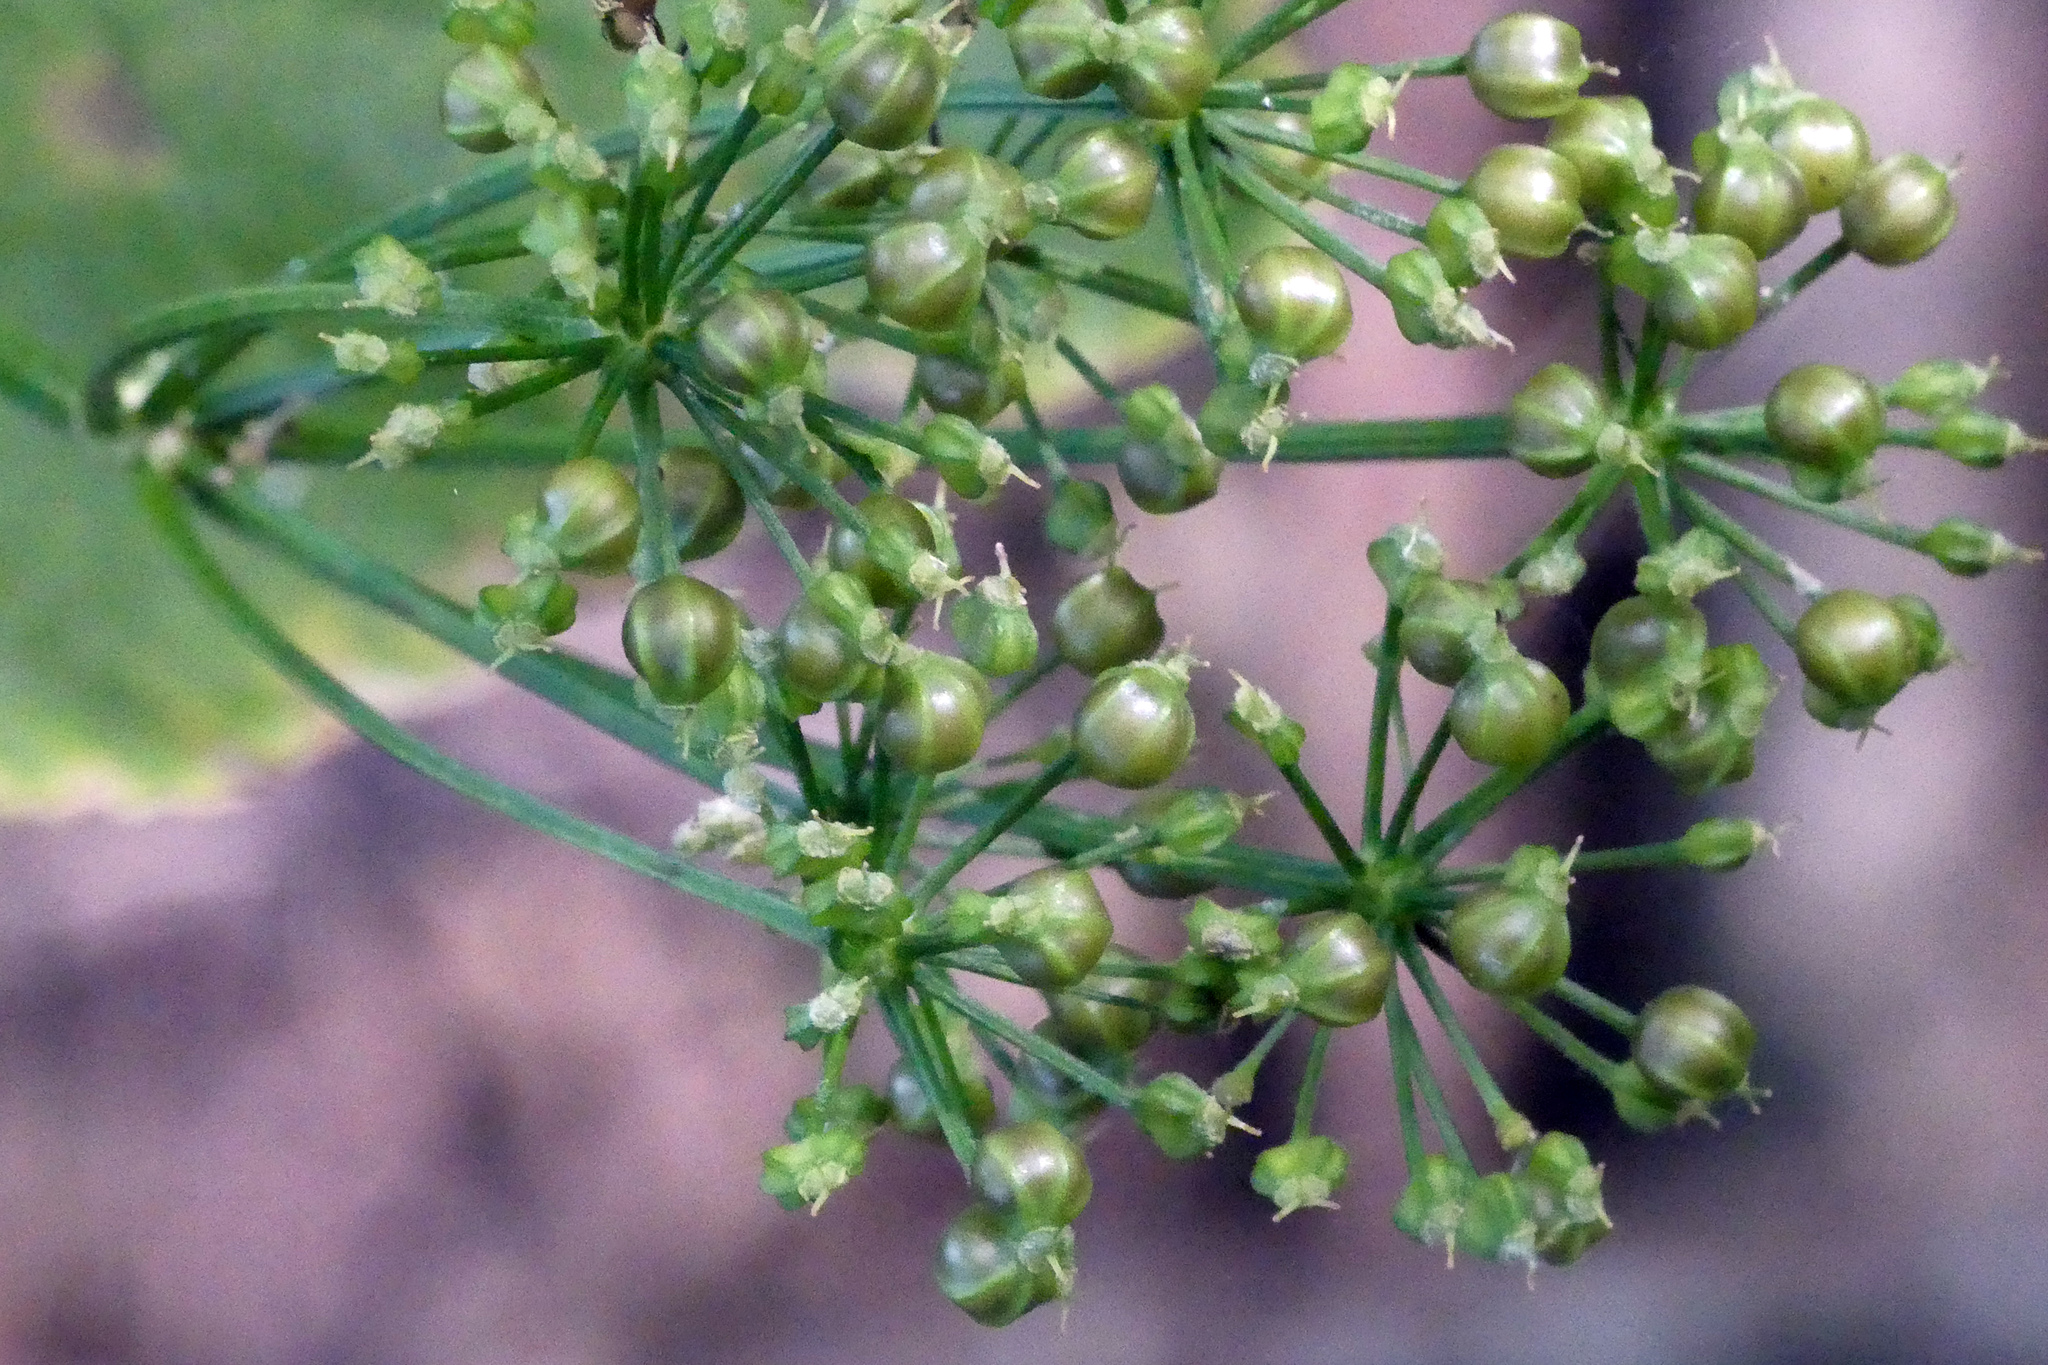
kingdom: Plantae
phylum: Tracheophyta
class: Magnoliopsida
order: Apiales
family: Apiaceae
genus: Smyrnium
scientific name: Smyrnium perfoliatum
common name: Perfoliate alexanders
